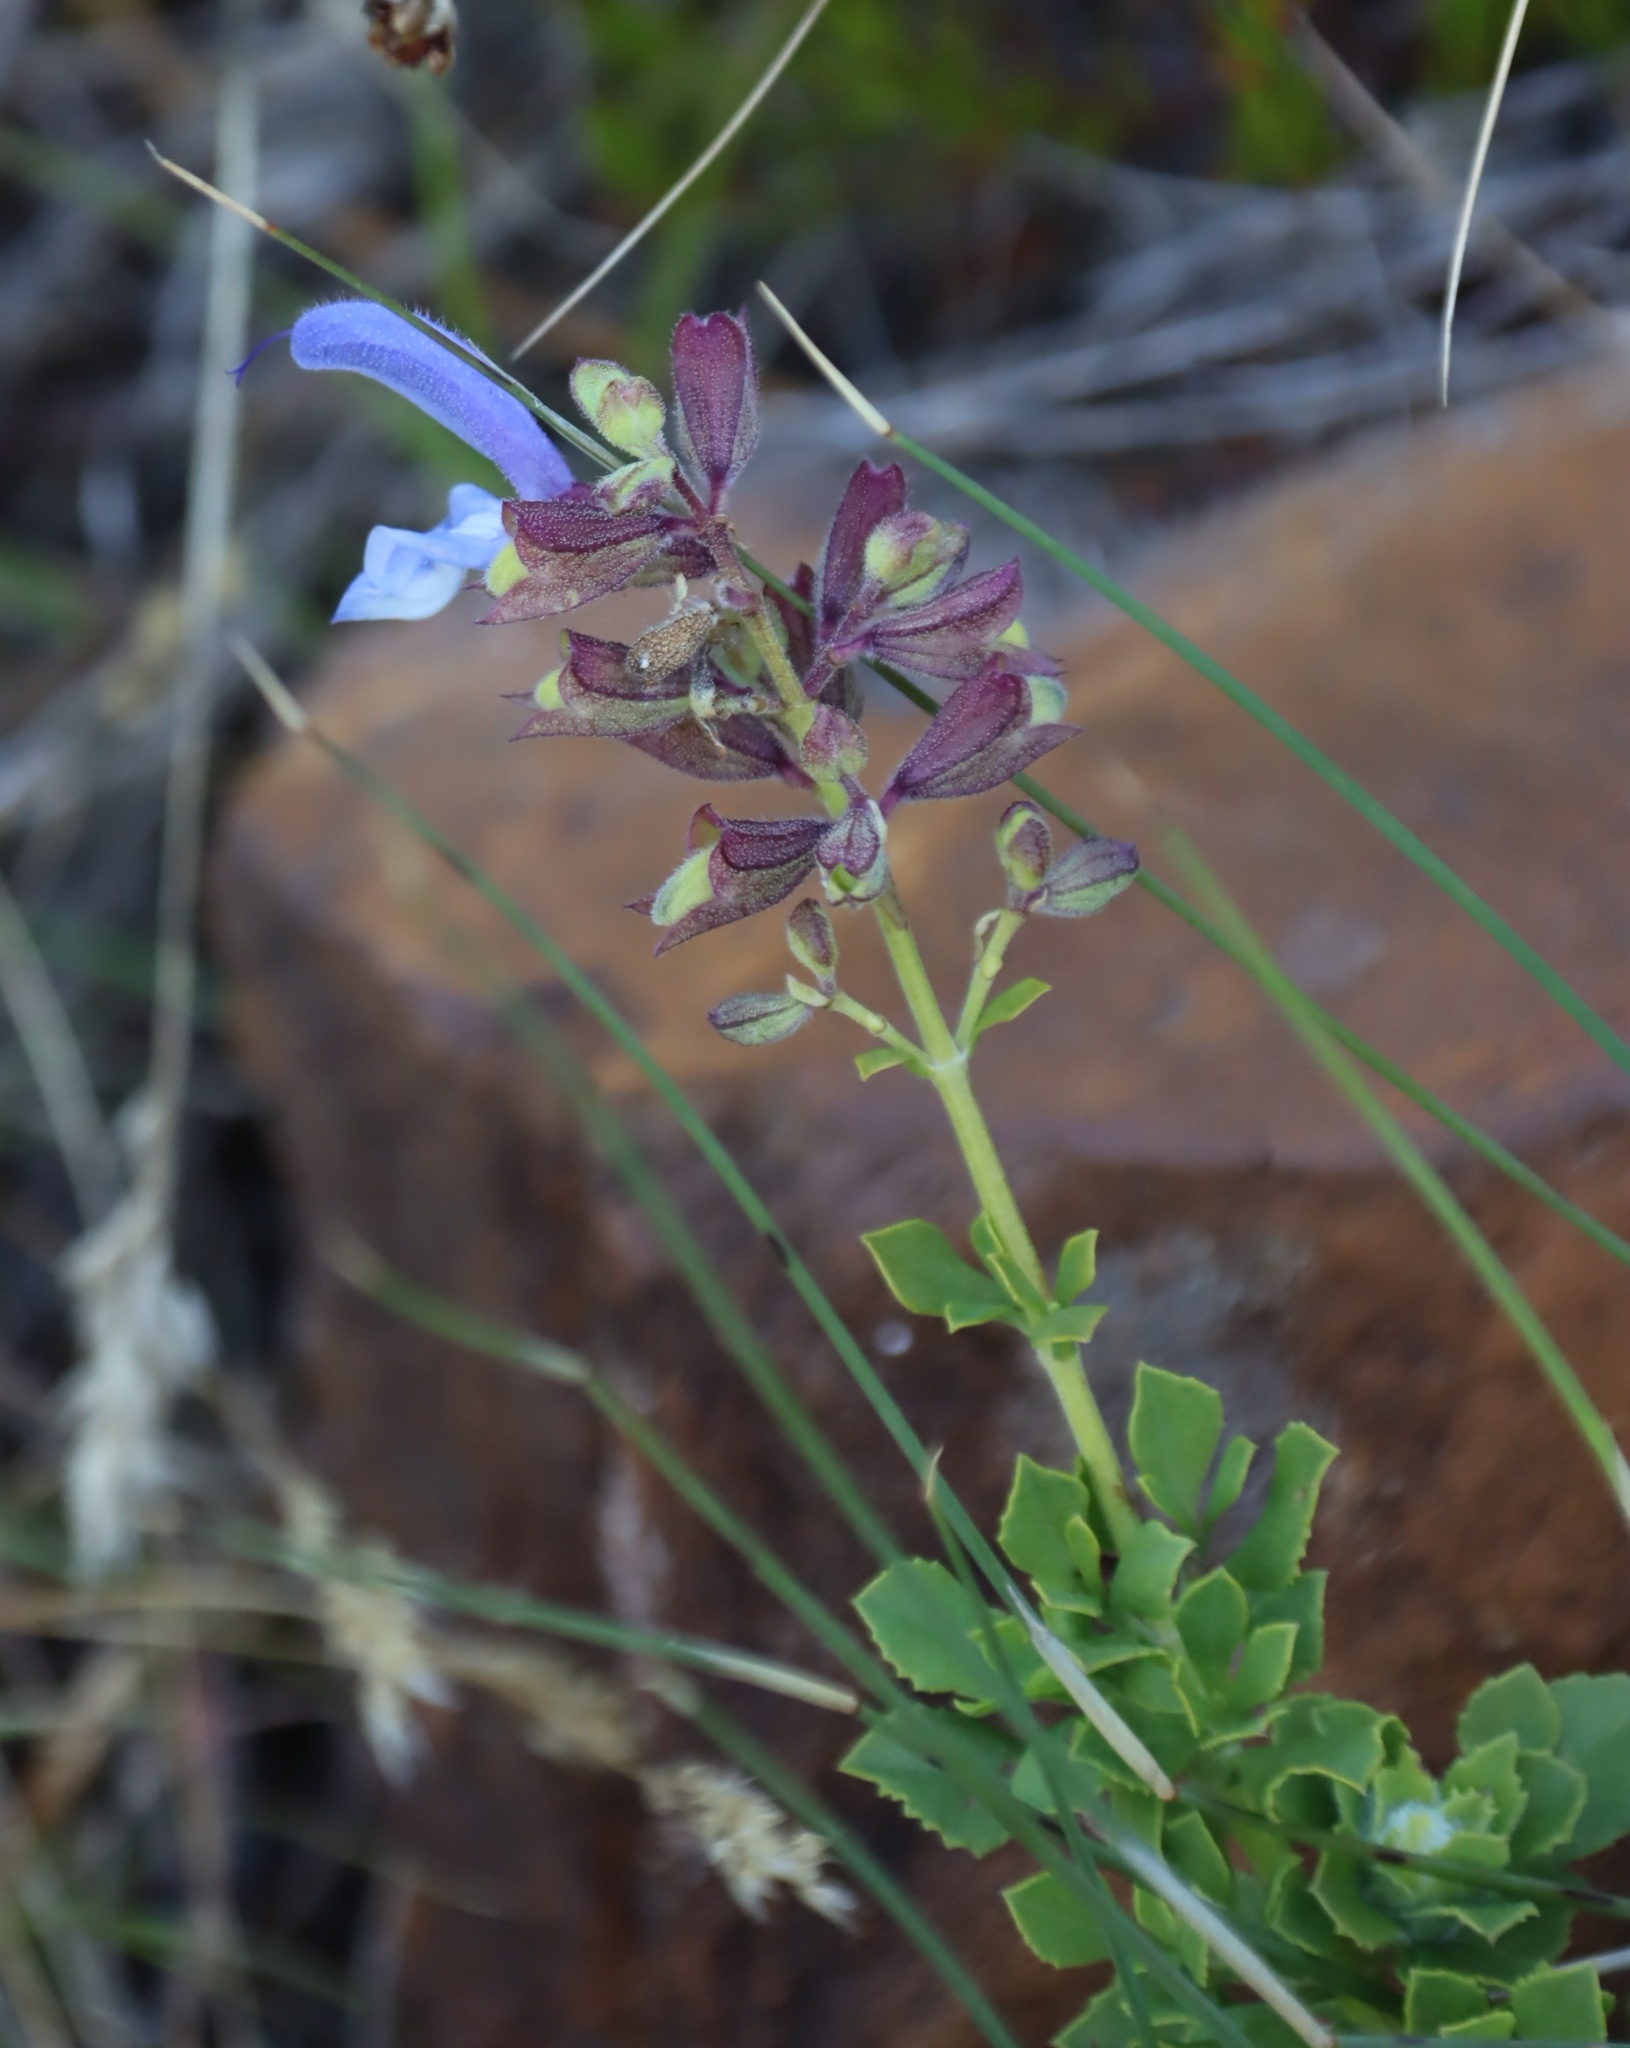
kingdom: Plantae
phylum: Tracheophyta
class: Magnoliopsida
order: Lamiales
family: Lamiaceae
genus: Salvia
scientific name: Salvia chamelaeagnea
